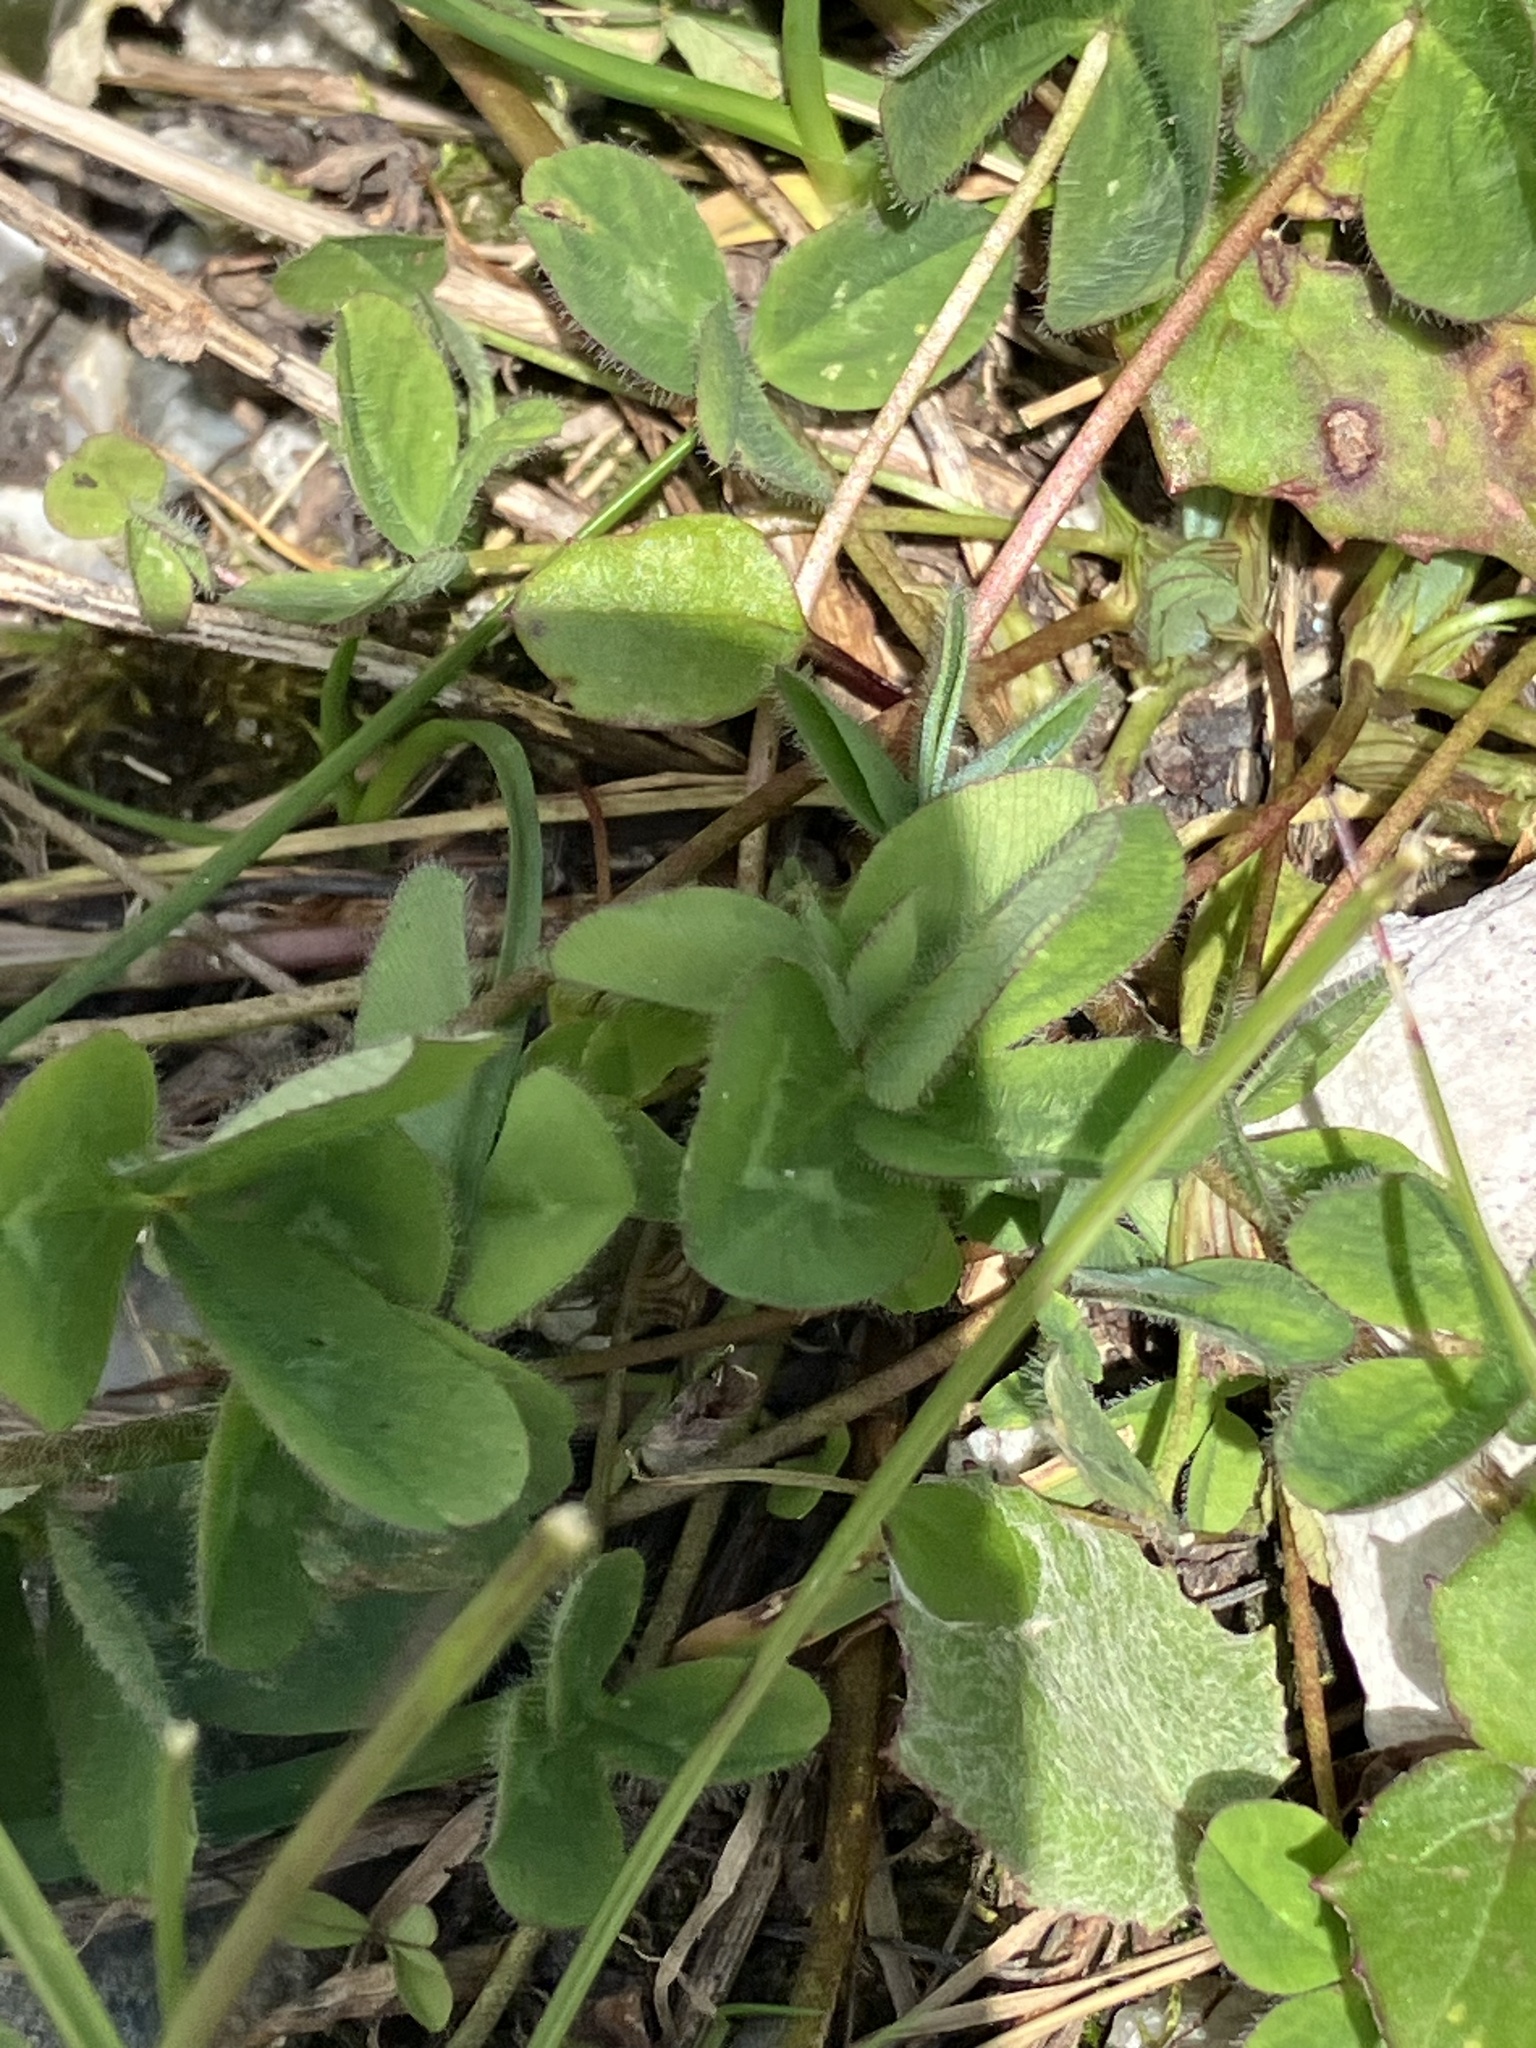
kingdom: Plantae
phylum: Tracheophyta
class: Magnoliopsida
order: Fabales
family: Fabaceae
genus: Trifolium
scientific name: Trifolium pratense
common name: Red clover
